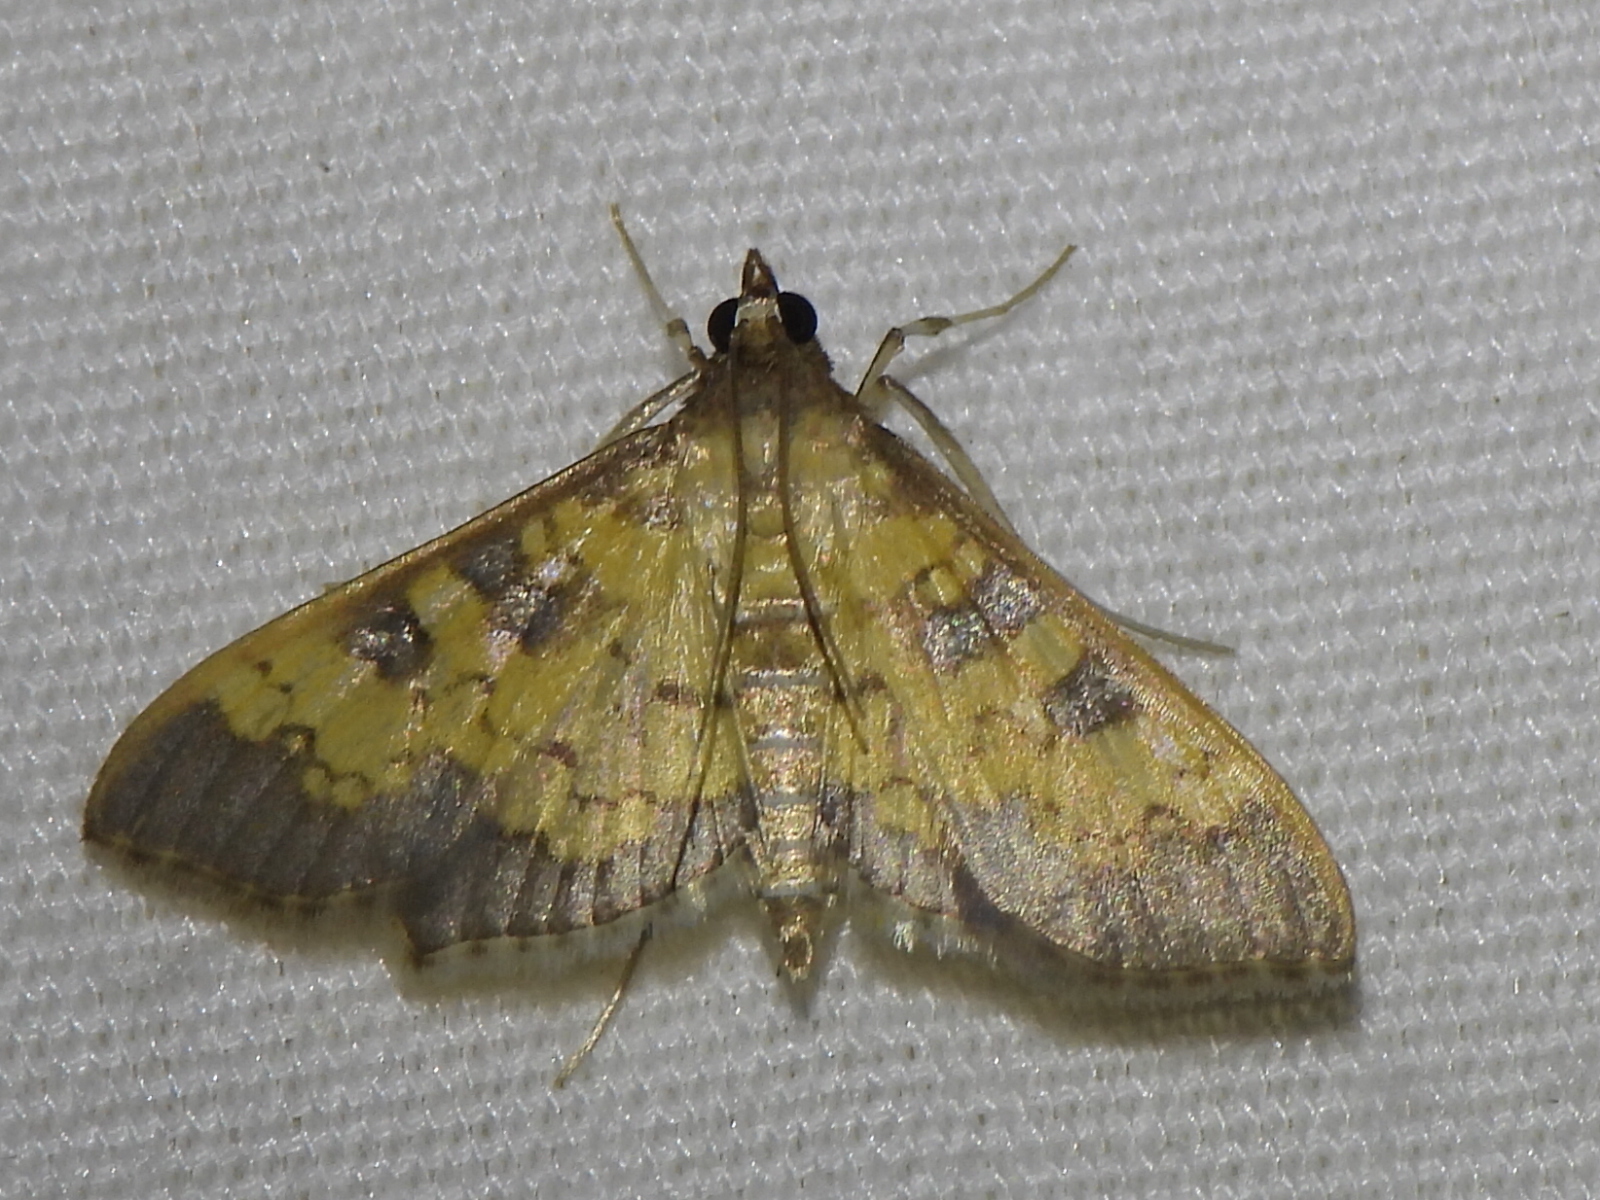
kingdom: Animalia
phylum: Arthropoda
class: Insecta
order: Lepidoptera
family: Crambidae
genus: Cryptographis
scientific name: Cryptographis elealis
